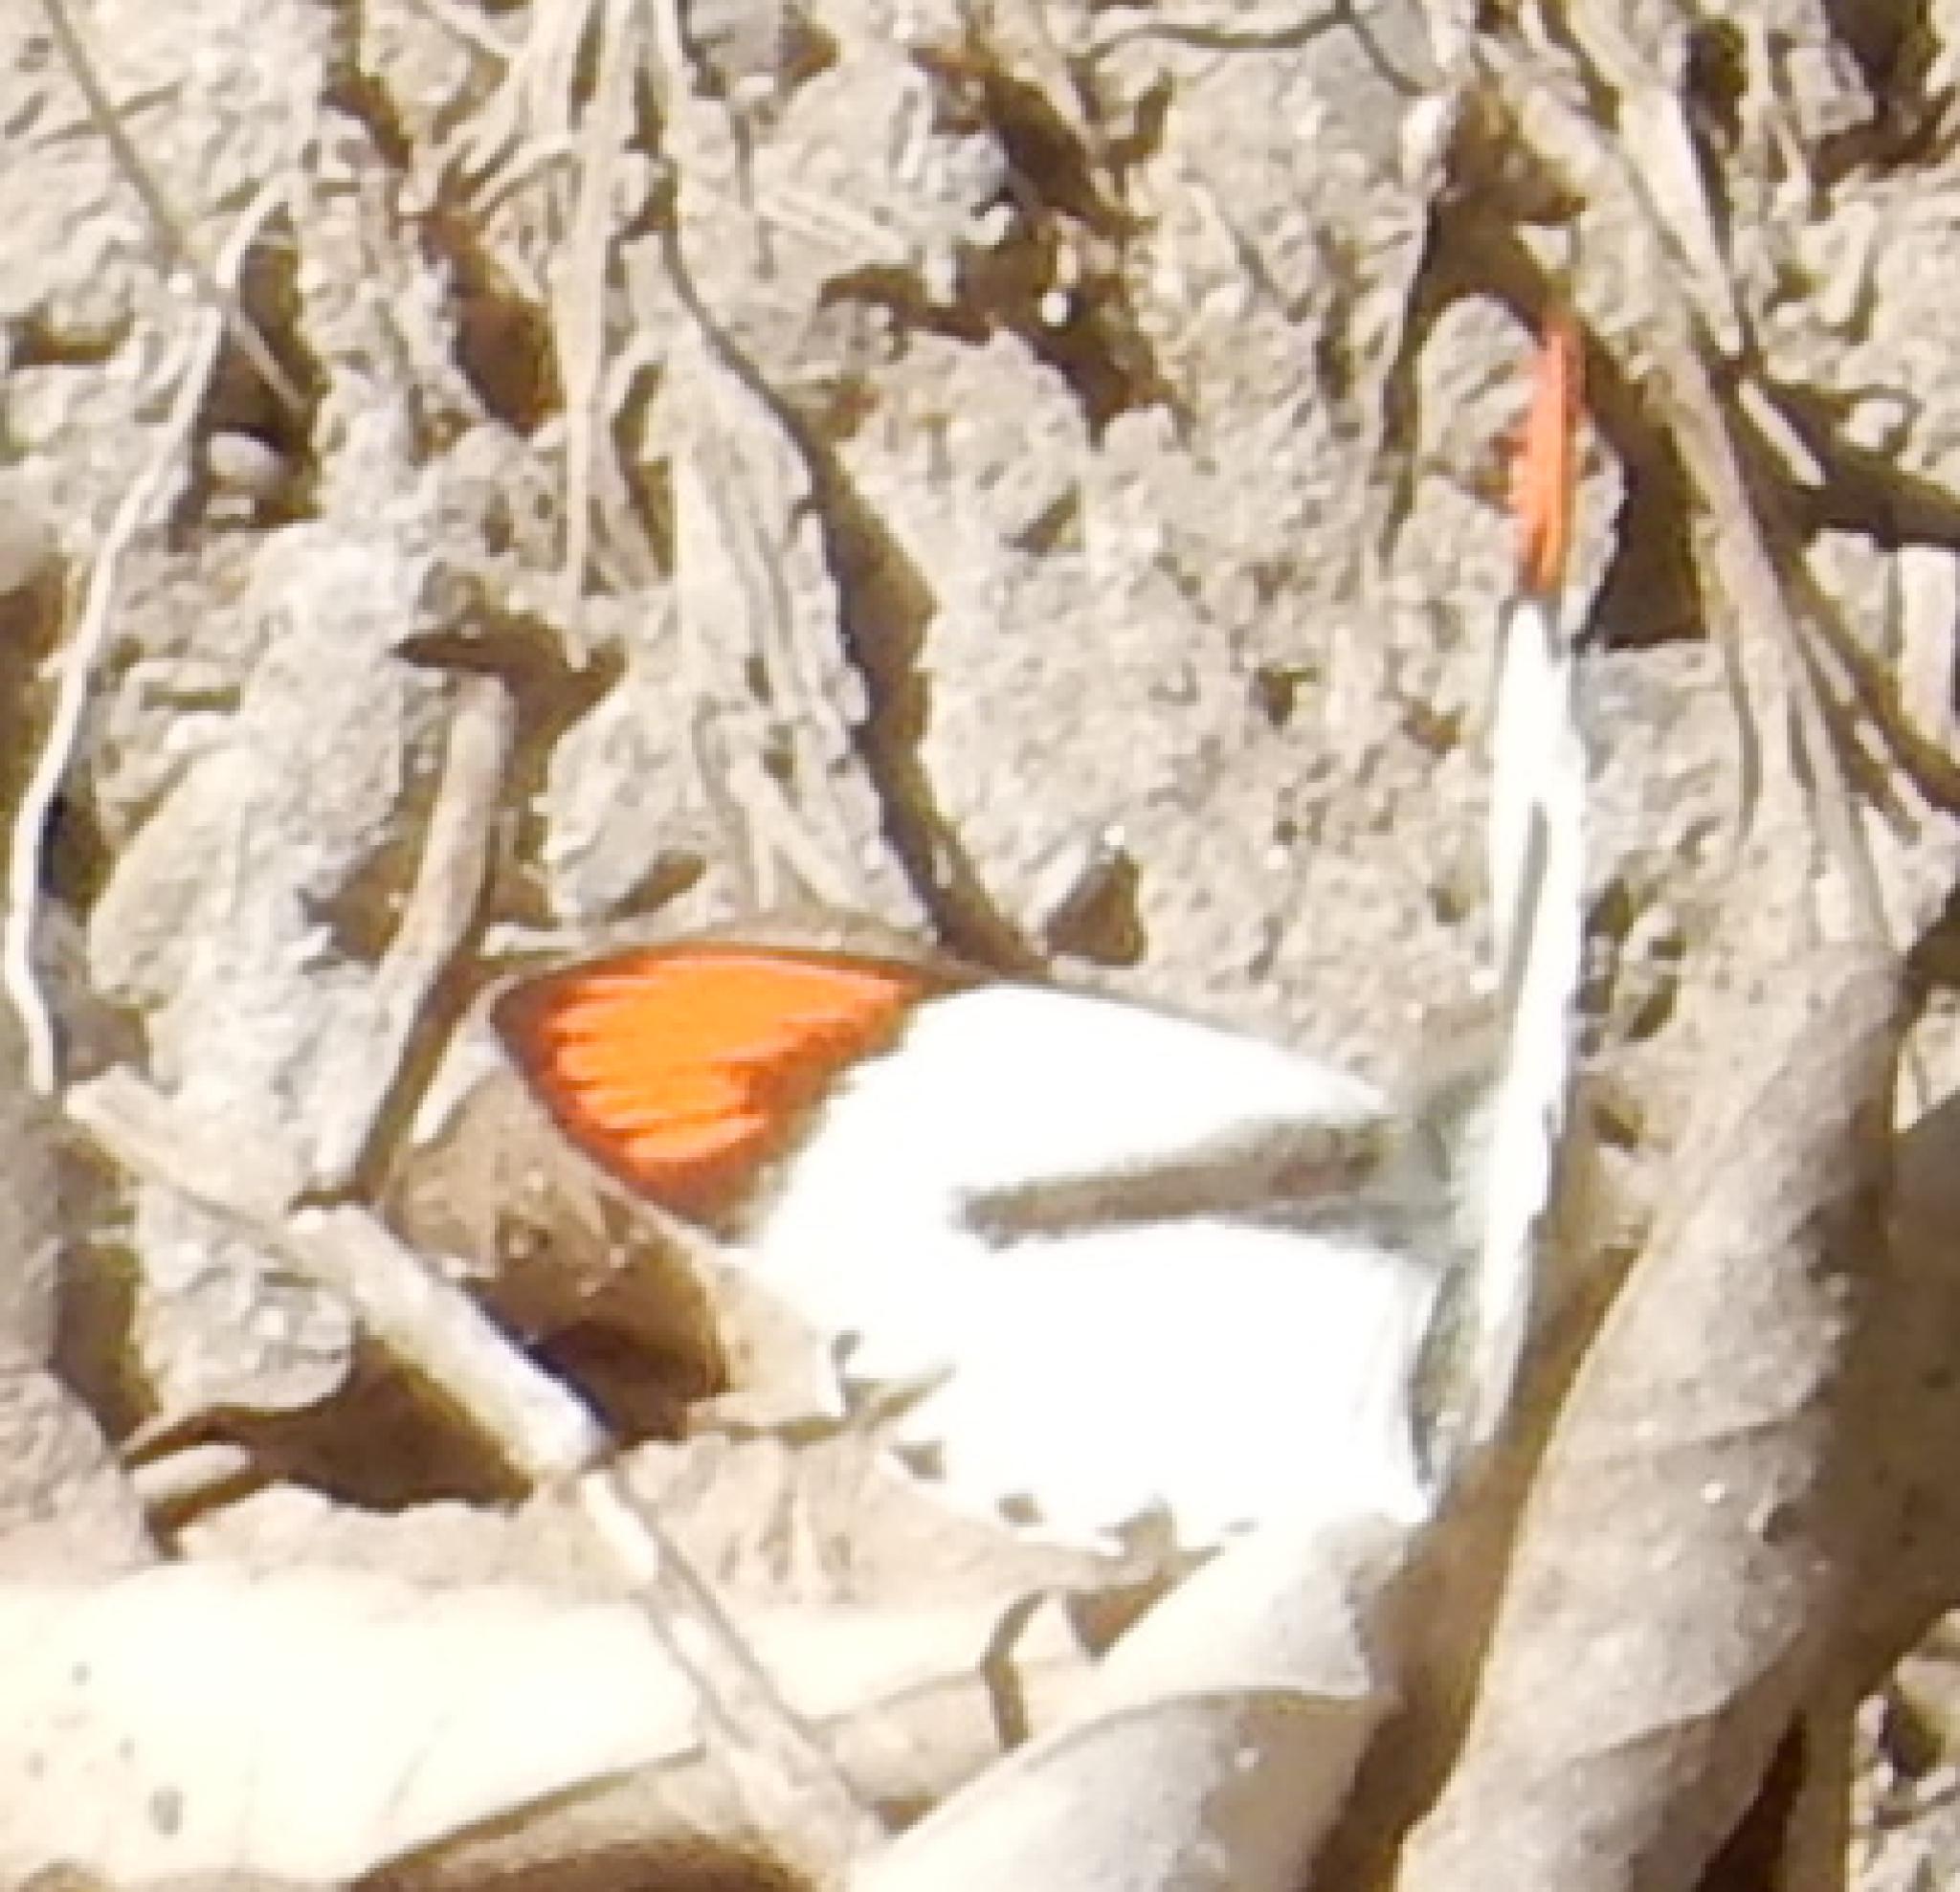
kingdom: Animalia
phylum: Arthropoda
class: Insecta
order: Lepidoptera
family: Pieridae
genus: Colotis
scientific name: Colotis euippe
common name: Round-winged orange tip
